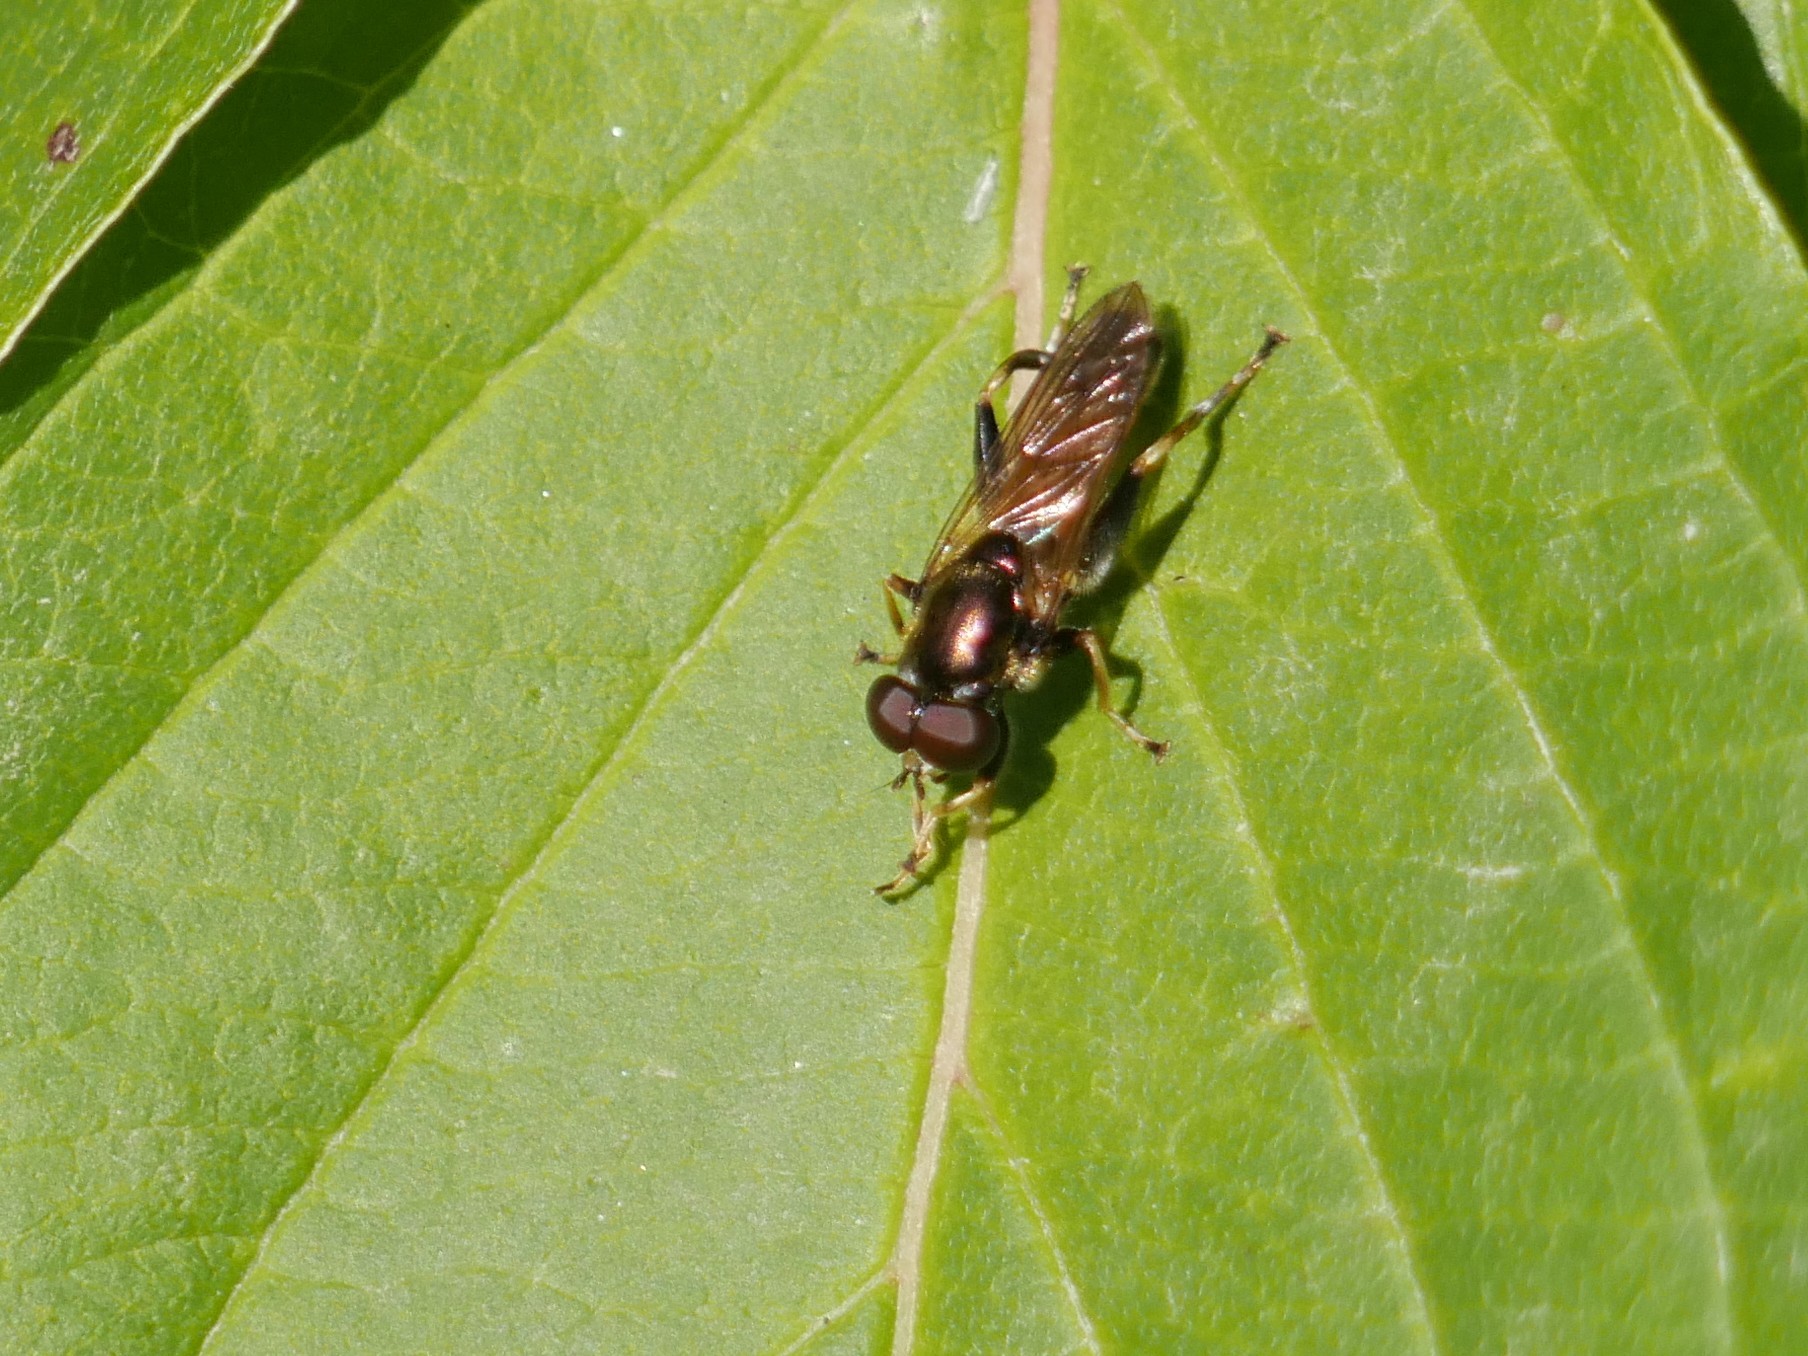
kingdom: Animalia
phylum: Arthropoda
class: Insecta
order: Diptera
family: Syrphidae
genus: Xylota
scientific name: Xylota segnis
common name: Brown-toed forest fly
